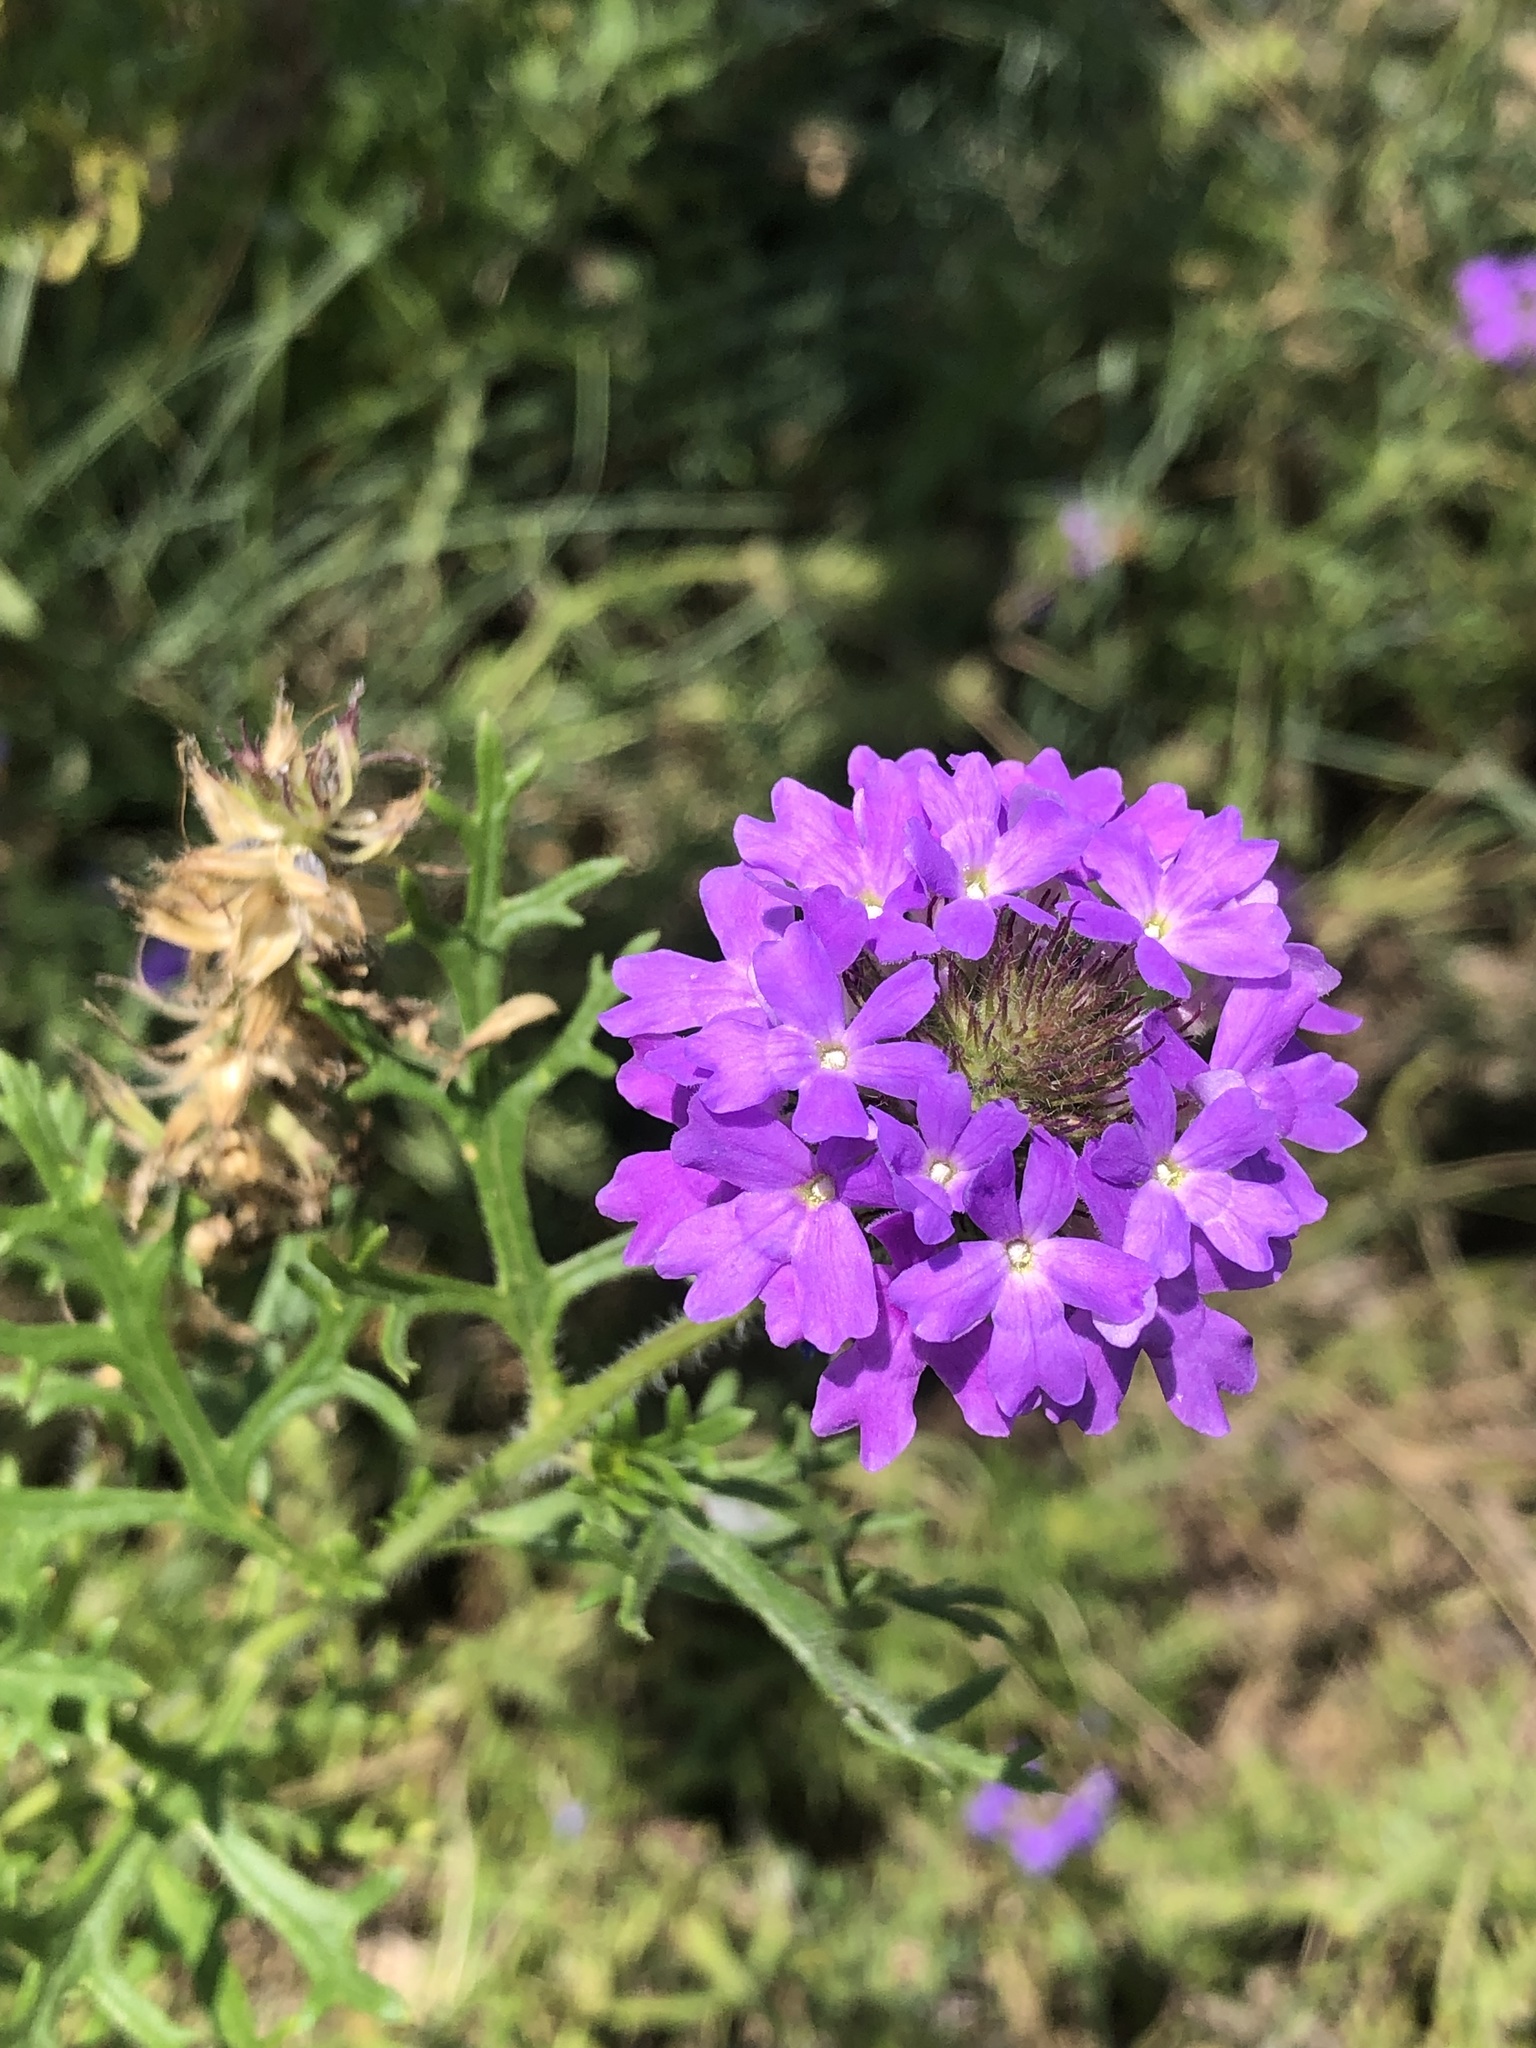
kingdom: Plantae
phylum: Tracheophyta
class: Magnoliopsida
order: Lamiales
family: Verbenaceae
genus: Verbena
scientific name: Verbena bipinnatifida
